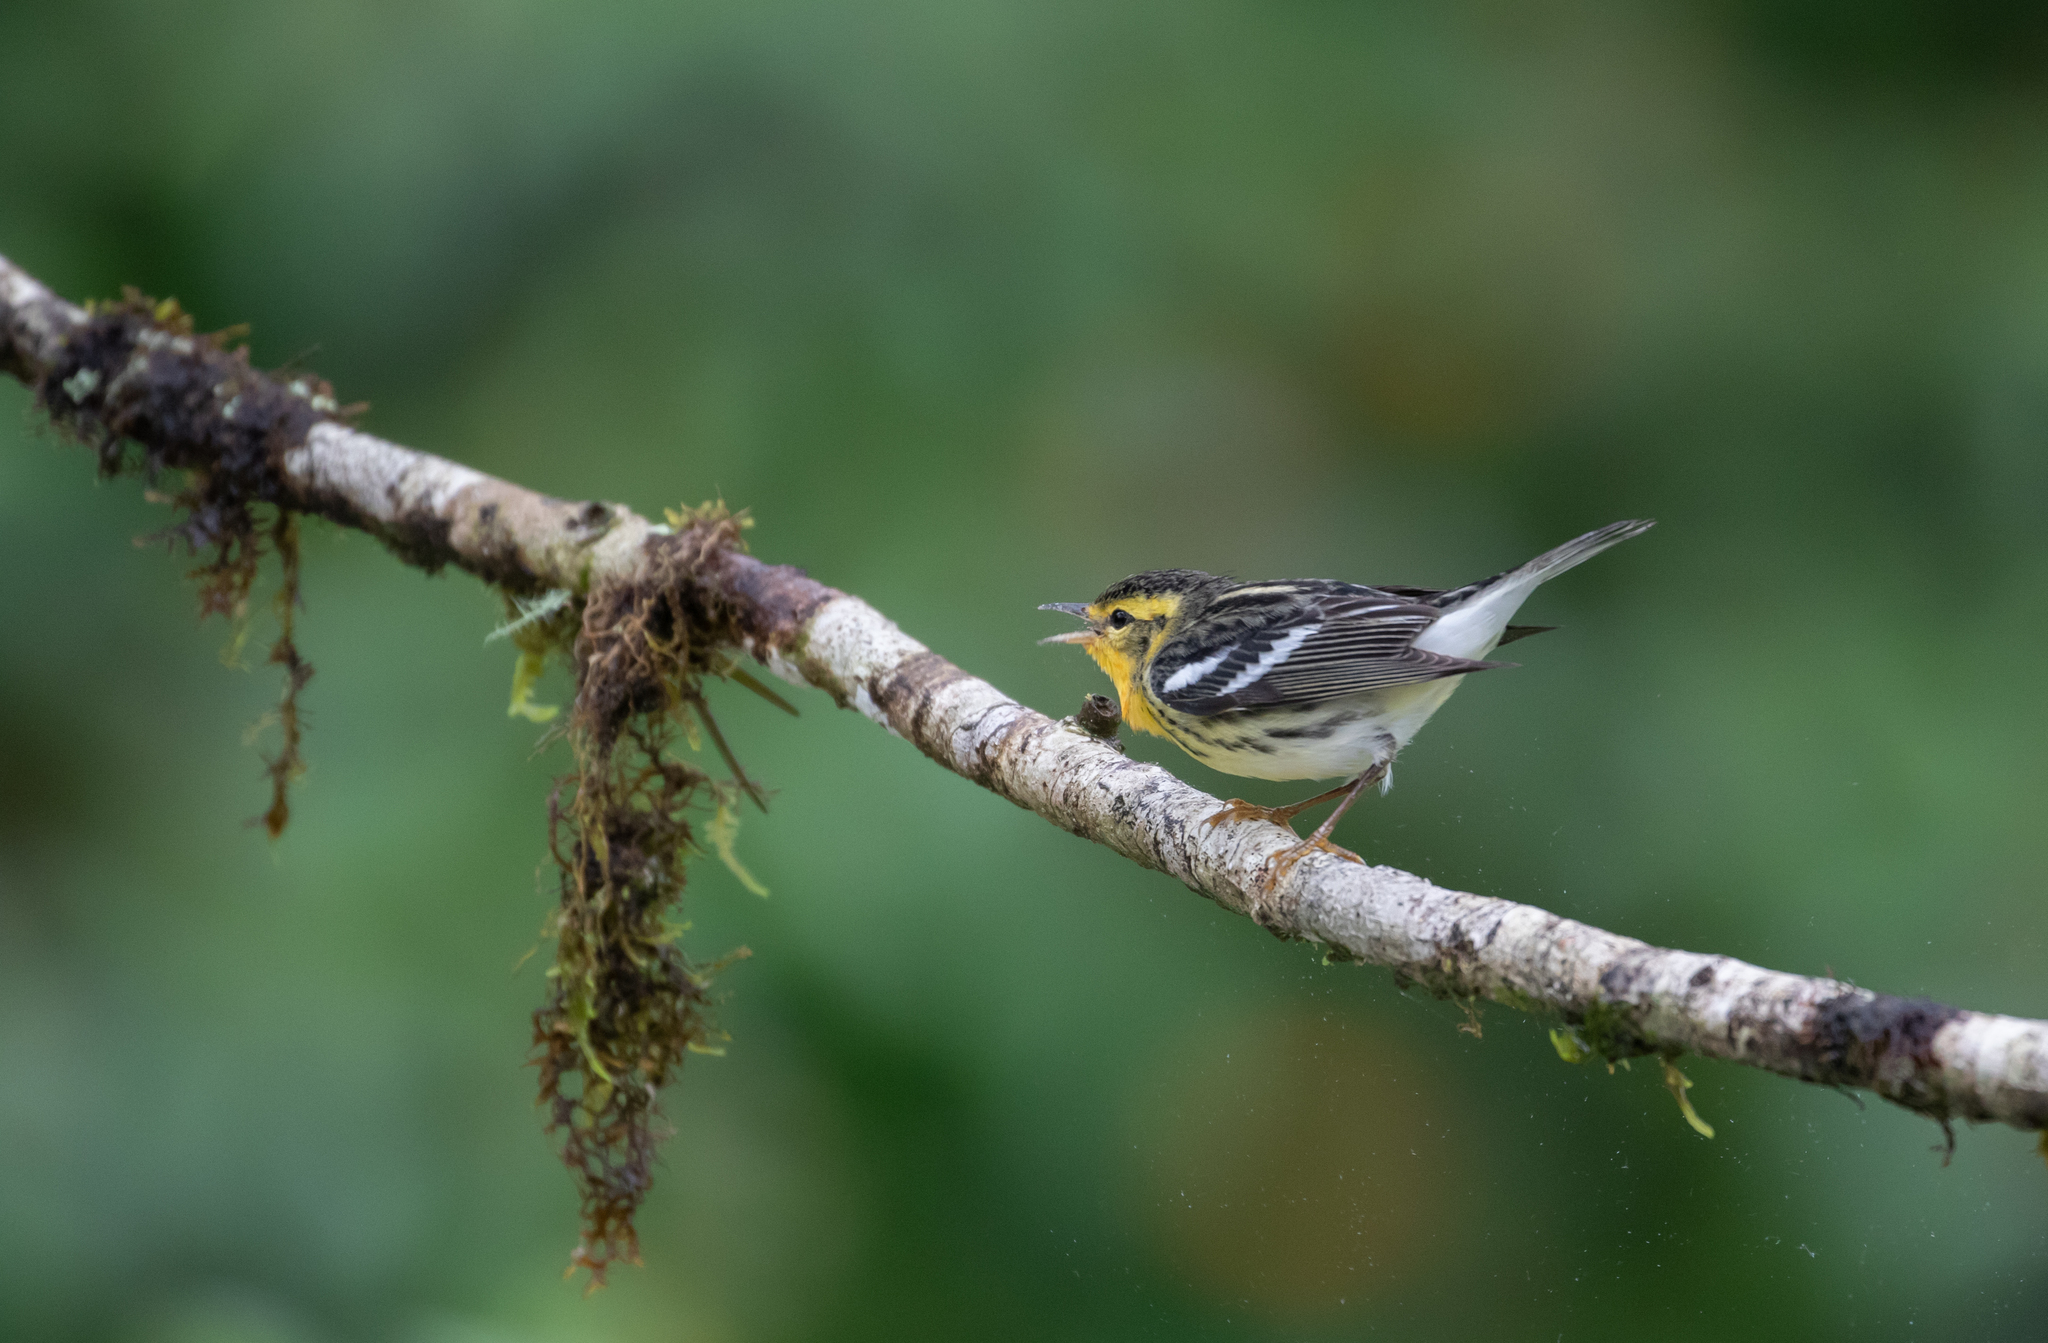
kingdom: Animalia
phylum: Chordata
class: Aves
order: Passeriformes
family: Parulidae
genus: Setophaga
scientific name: Setophaga fusca
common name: Blackburnian warbler
